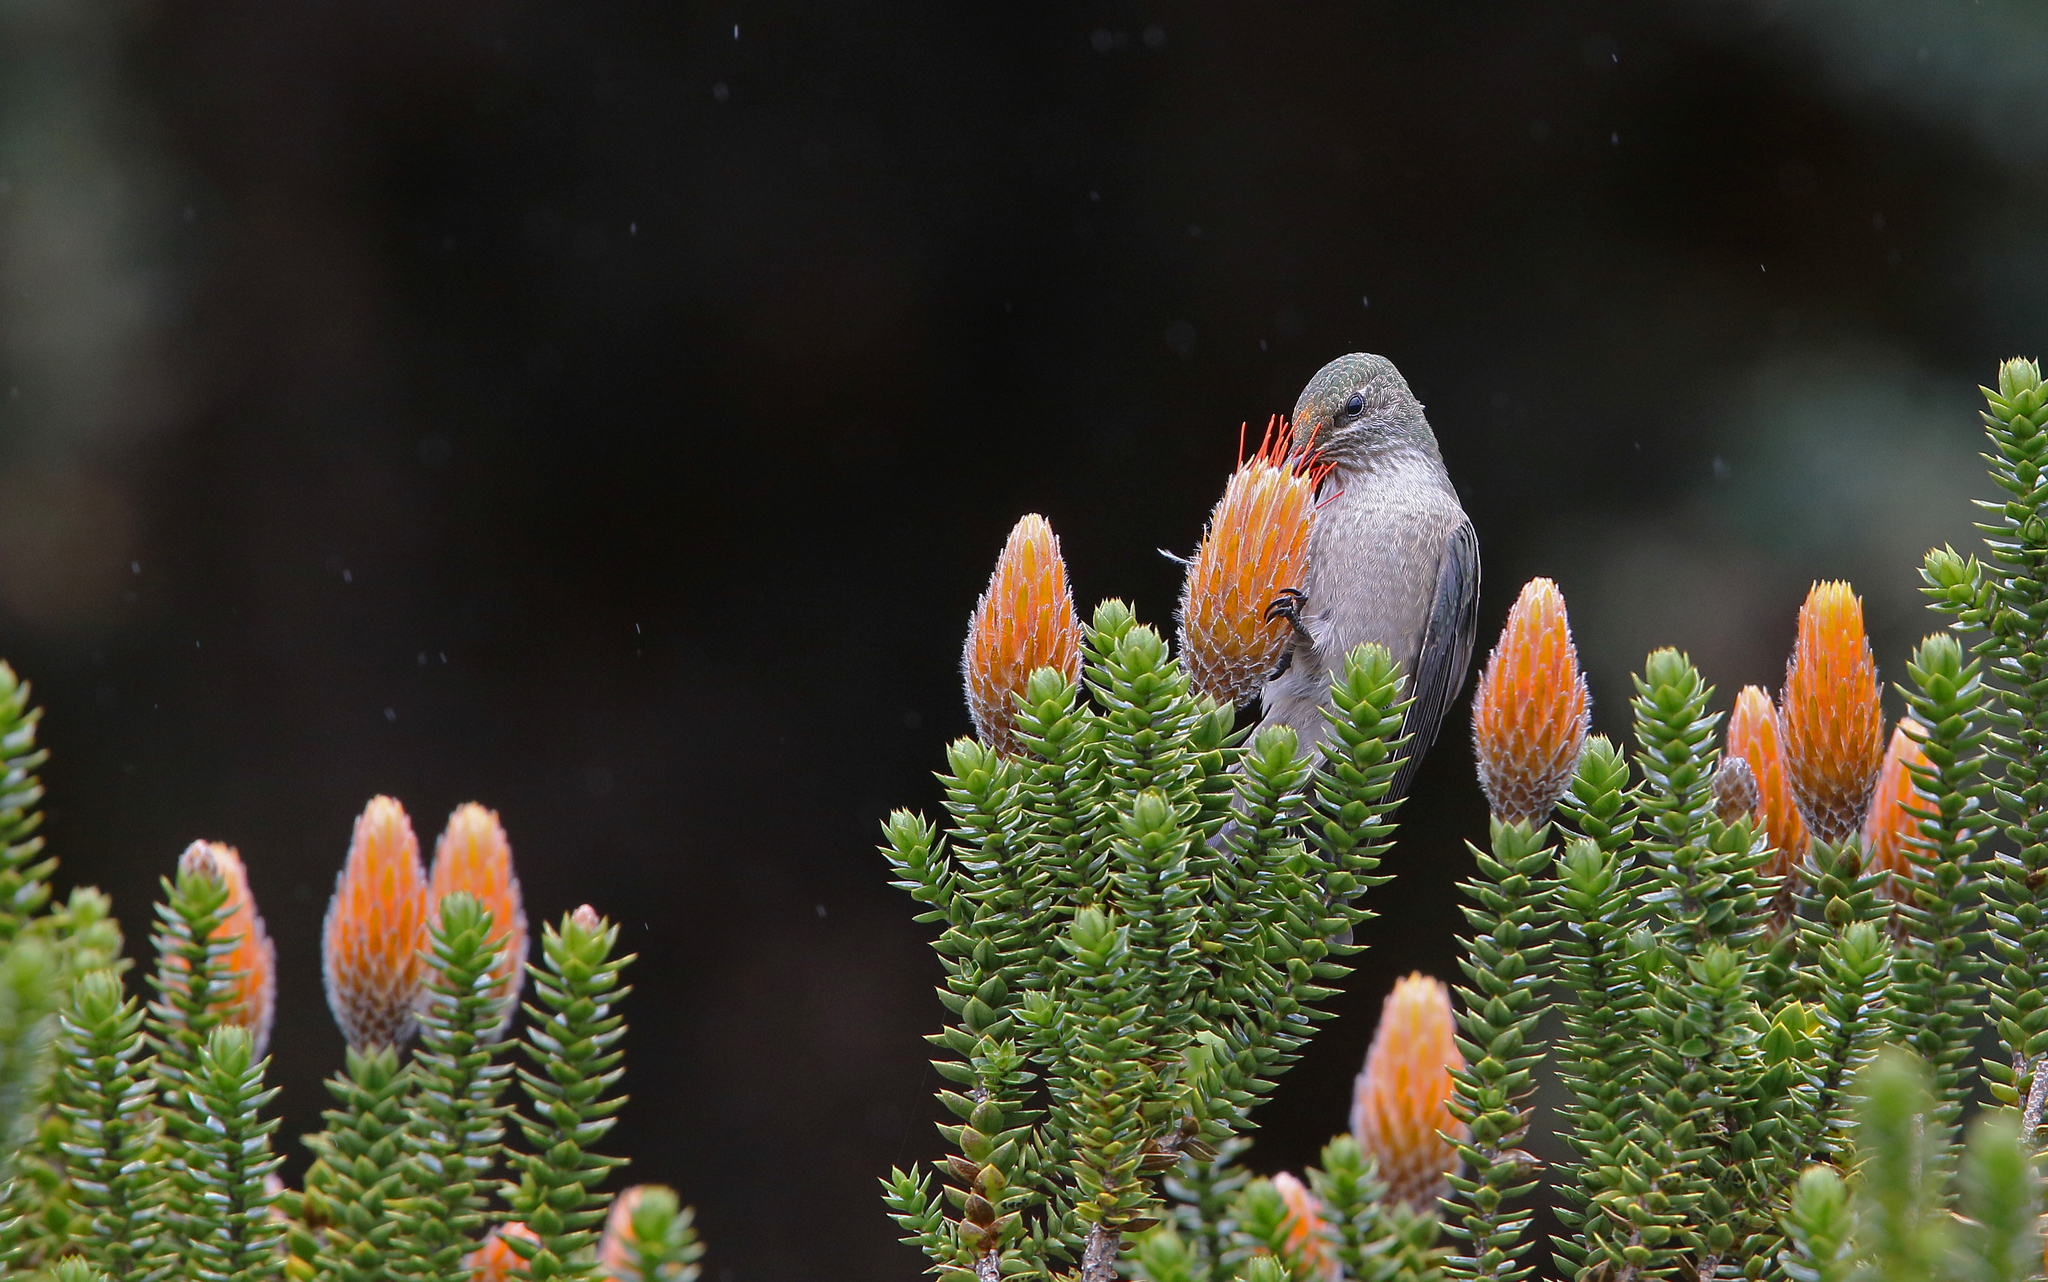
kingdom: Animalia
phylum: Chordata
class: Aves
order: Apodiformes
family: Trochilidae
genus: Oreotrochilus
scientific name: Oreotrochilus chimborazo
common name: Ecuadorian hillstar
